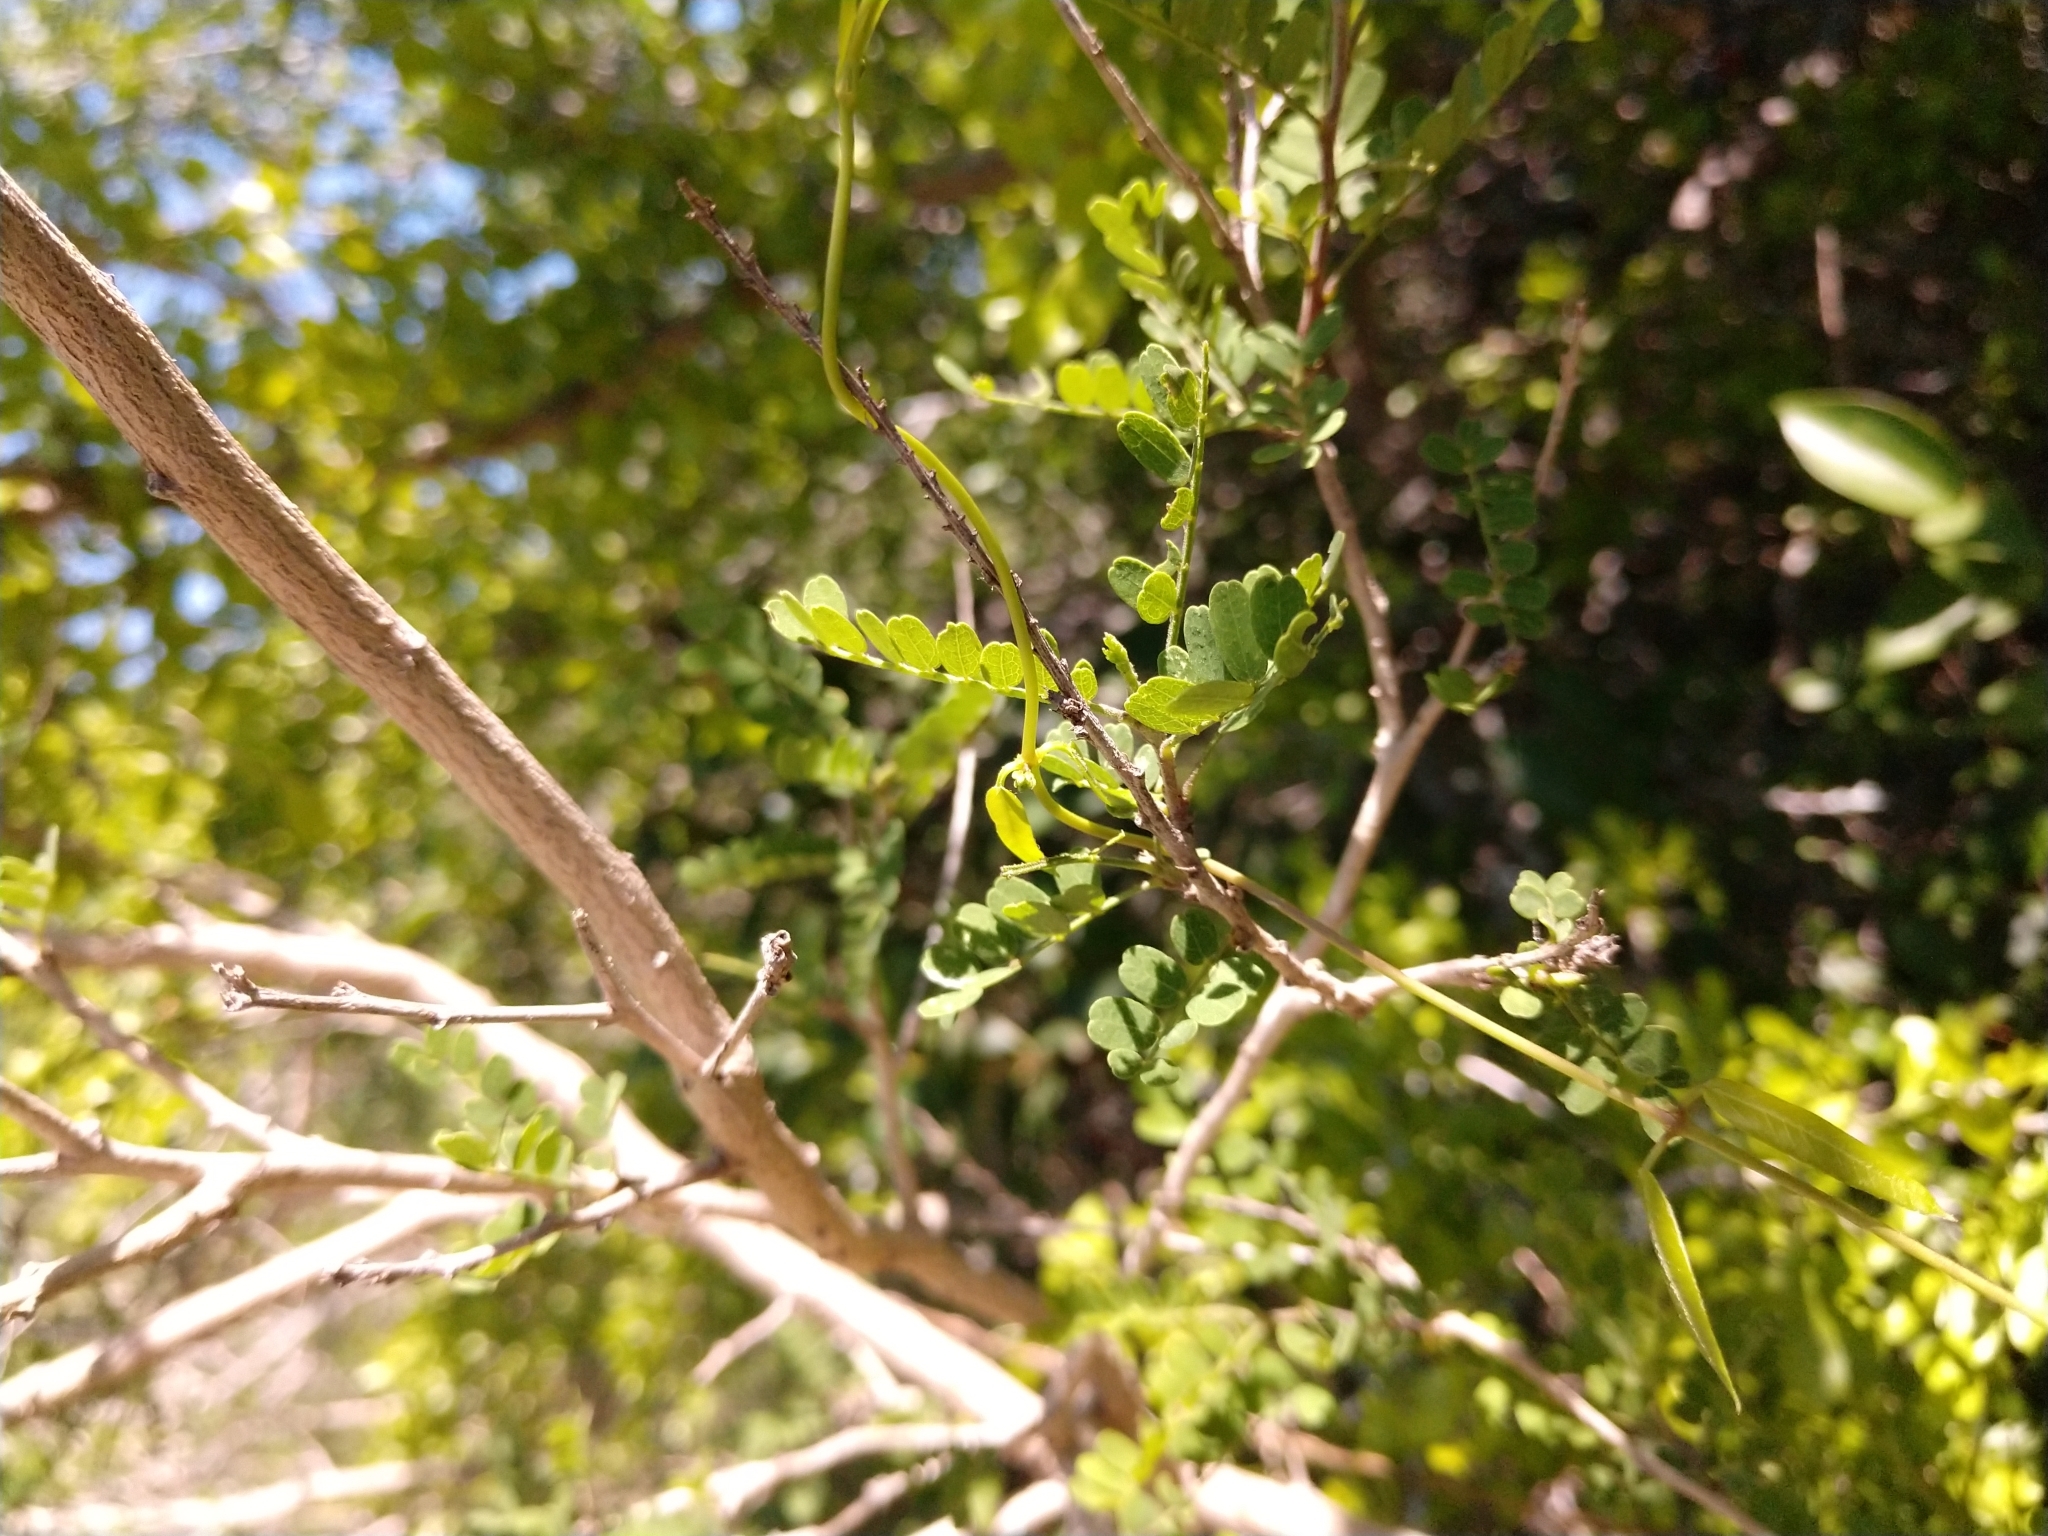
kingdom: Plantae
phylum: Tracheophyta
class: Magnoliopsida
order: Gentianales
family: Apocynaceae
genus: Metastelma
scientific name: Metastelma barbigerum
